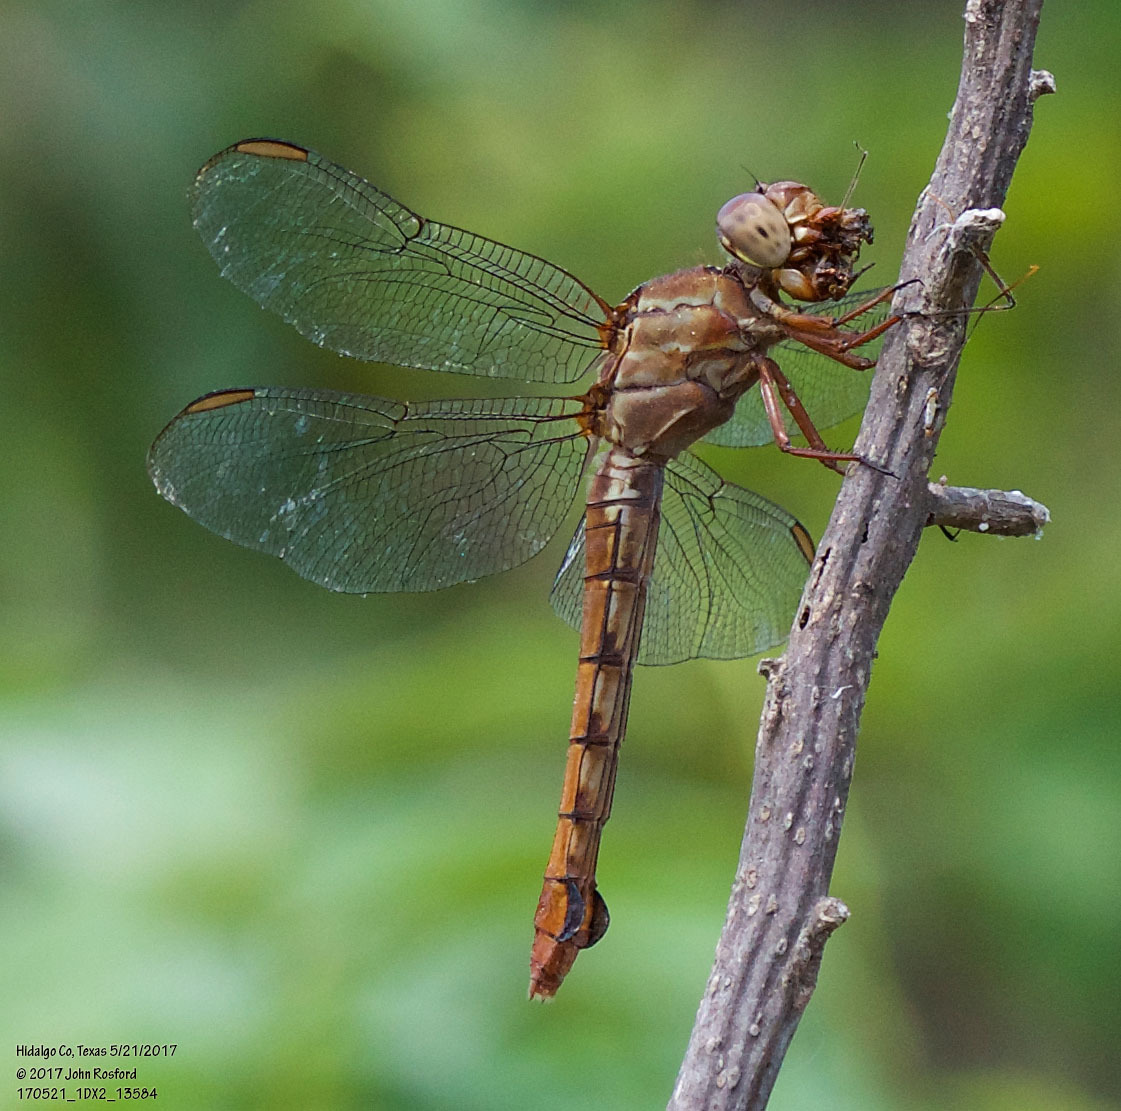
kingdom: Animalia
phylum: Arthropoda
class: Insecta
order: Odonata
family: Libellulidae
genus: Orthemis
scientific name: Orthemis discolor
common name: Carmine skimmer
